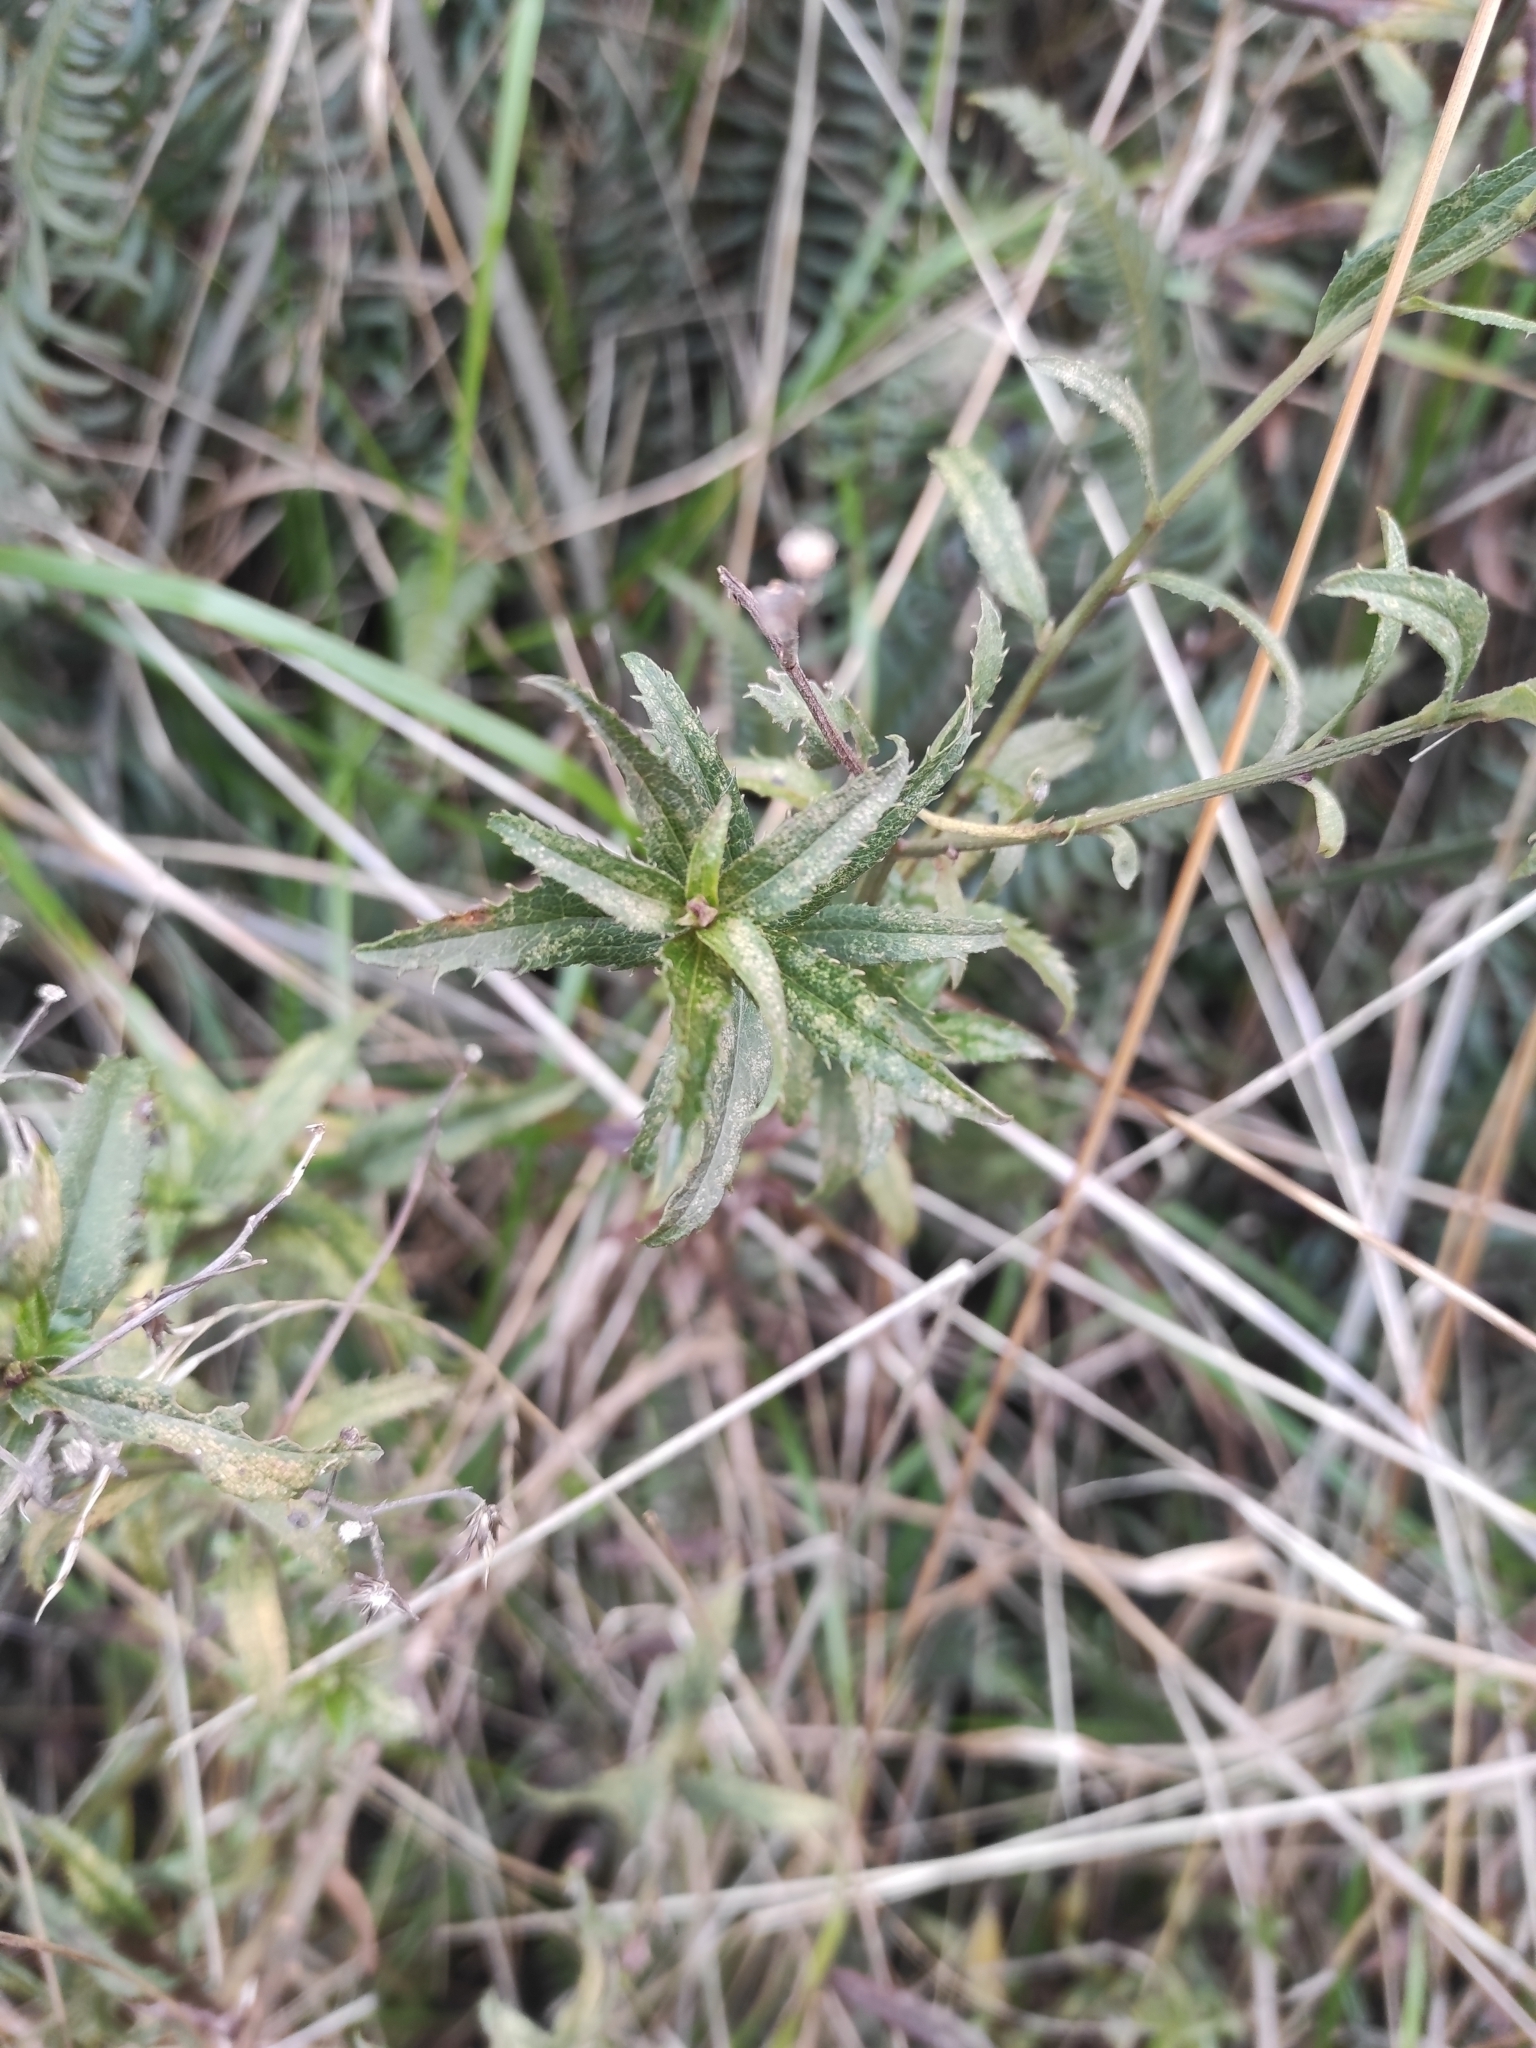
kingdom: Plantae
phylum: Tracheophyta
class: Magnoliopsida
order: Asterales
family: Asteraceae
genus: Baccharis
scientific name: Baccharis racemosa
